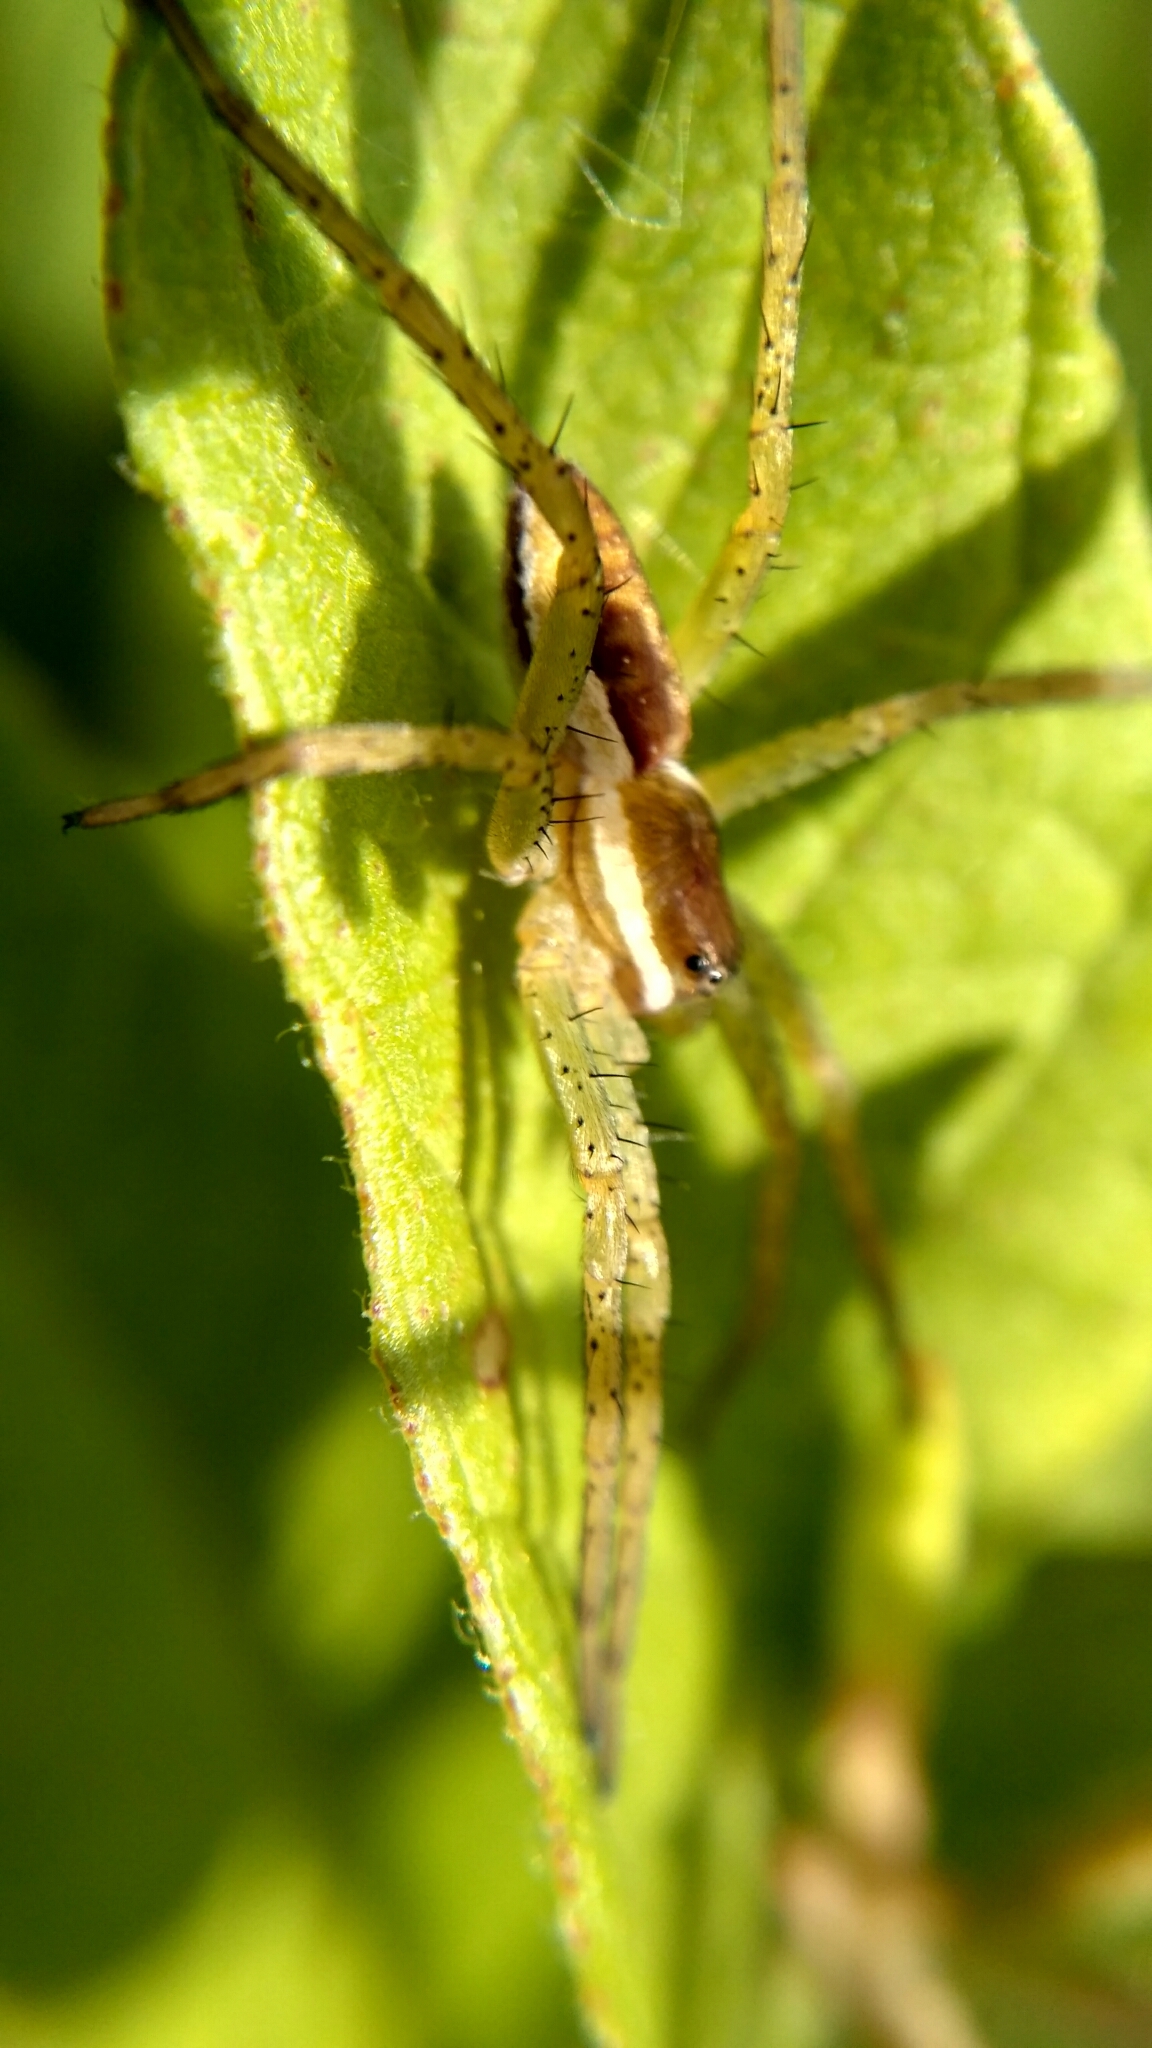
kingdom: Animalia
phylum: Arthropoda
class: Arachnida
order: Araneae
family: Pisauridae
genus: Dolomedes
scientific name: Dolomedes fimbriatus
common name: Raft spider
